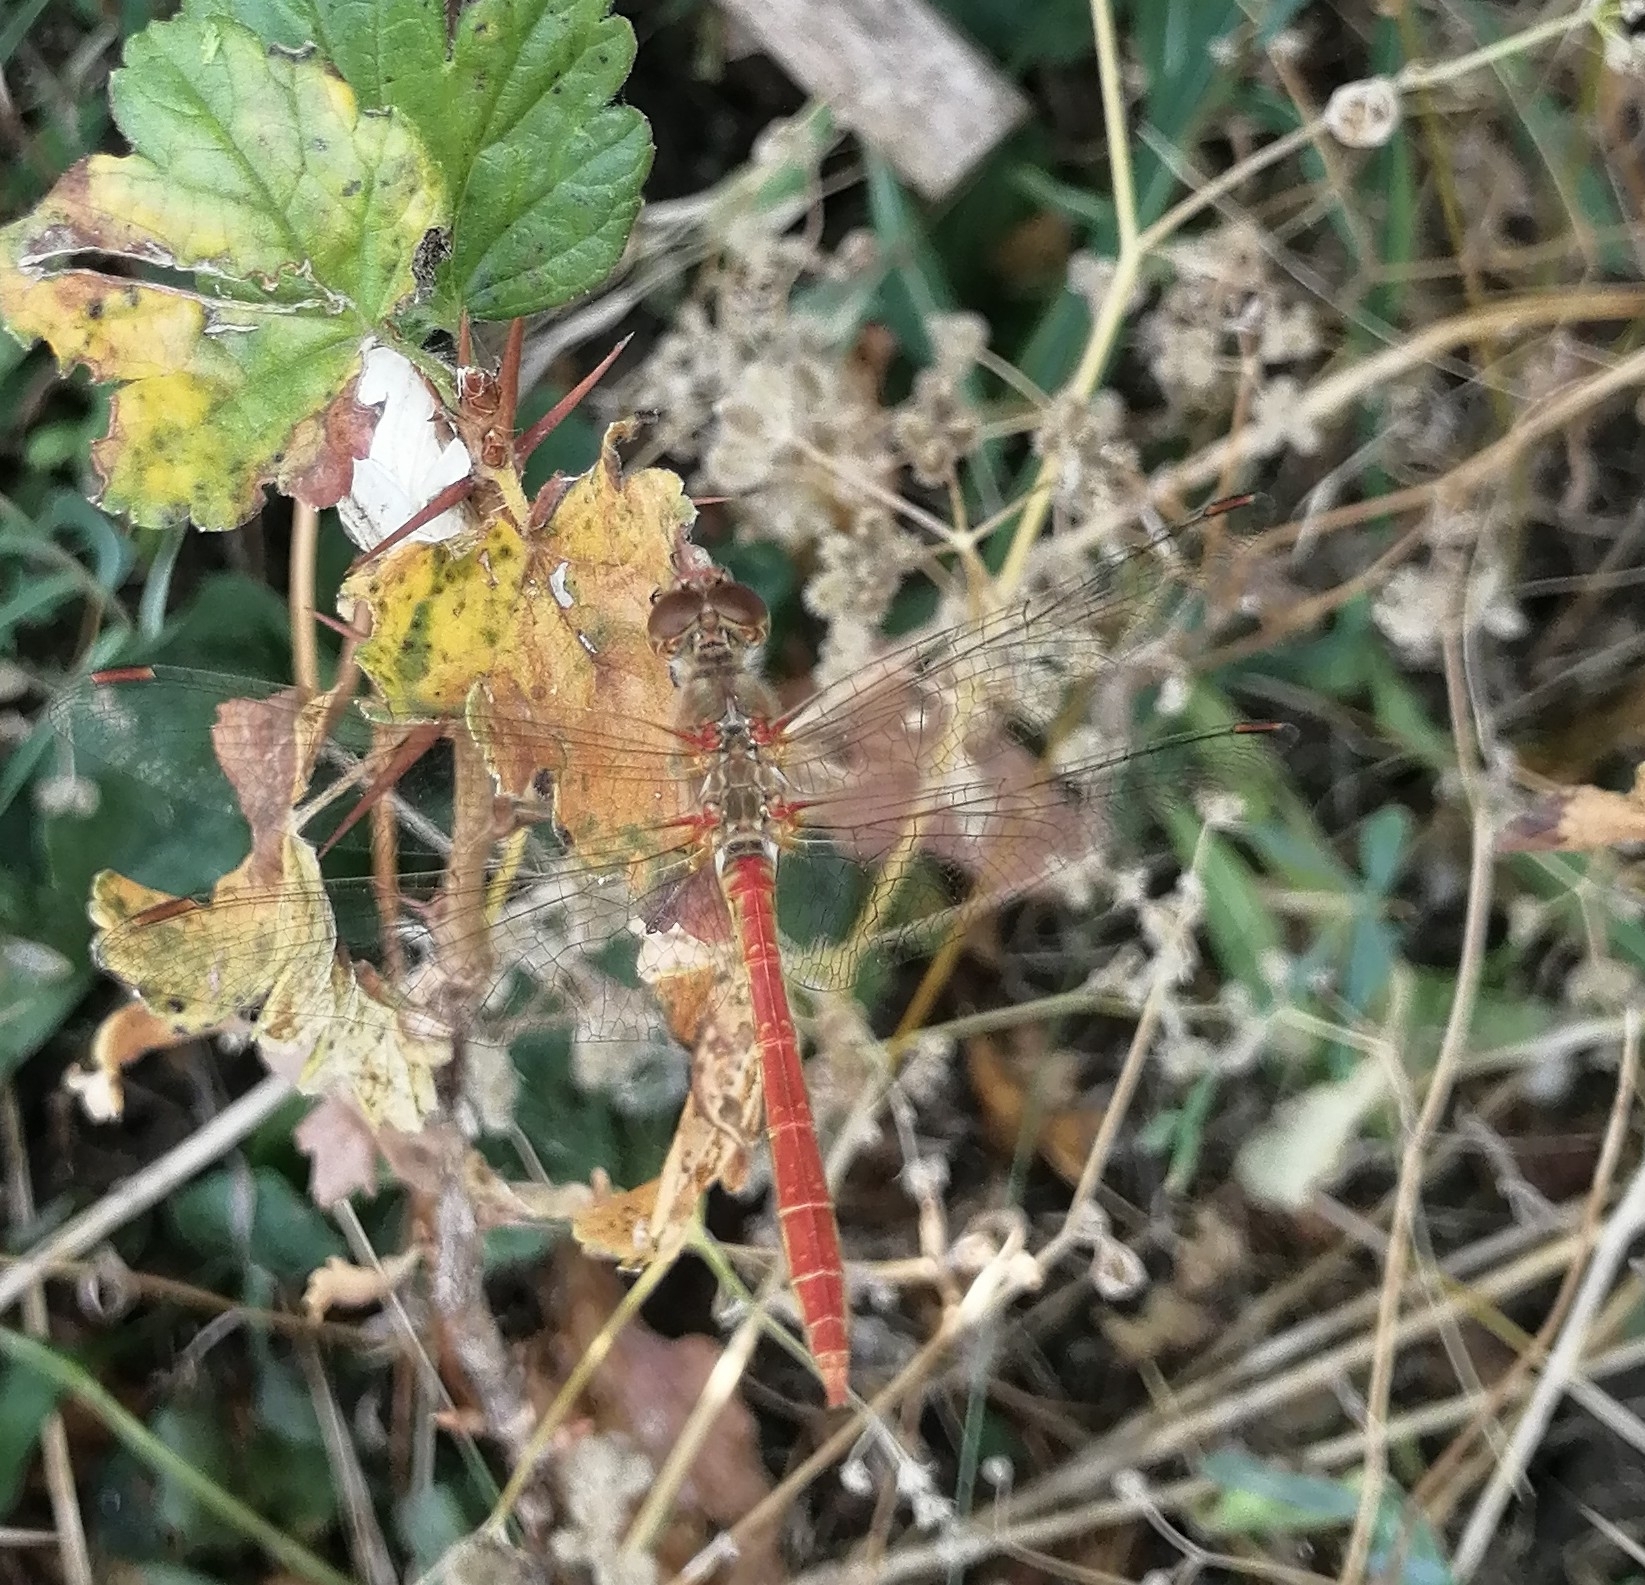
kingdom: Animalia
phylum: Arthropoda
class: Insecta
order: Odonata
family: Libellulidae
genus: Sympetrum
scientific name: Sympetrum meridionale
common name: Southern darter
